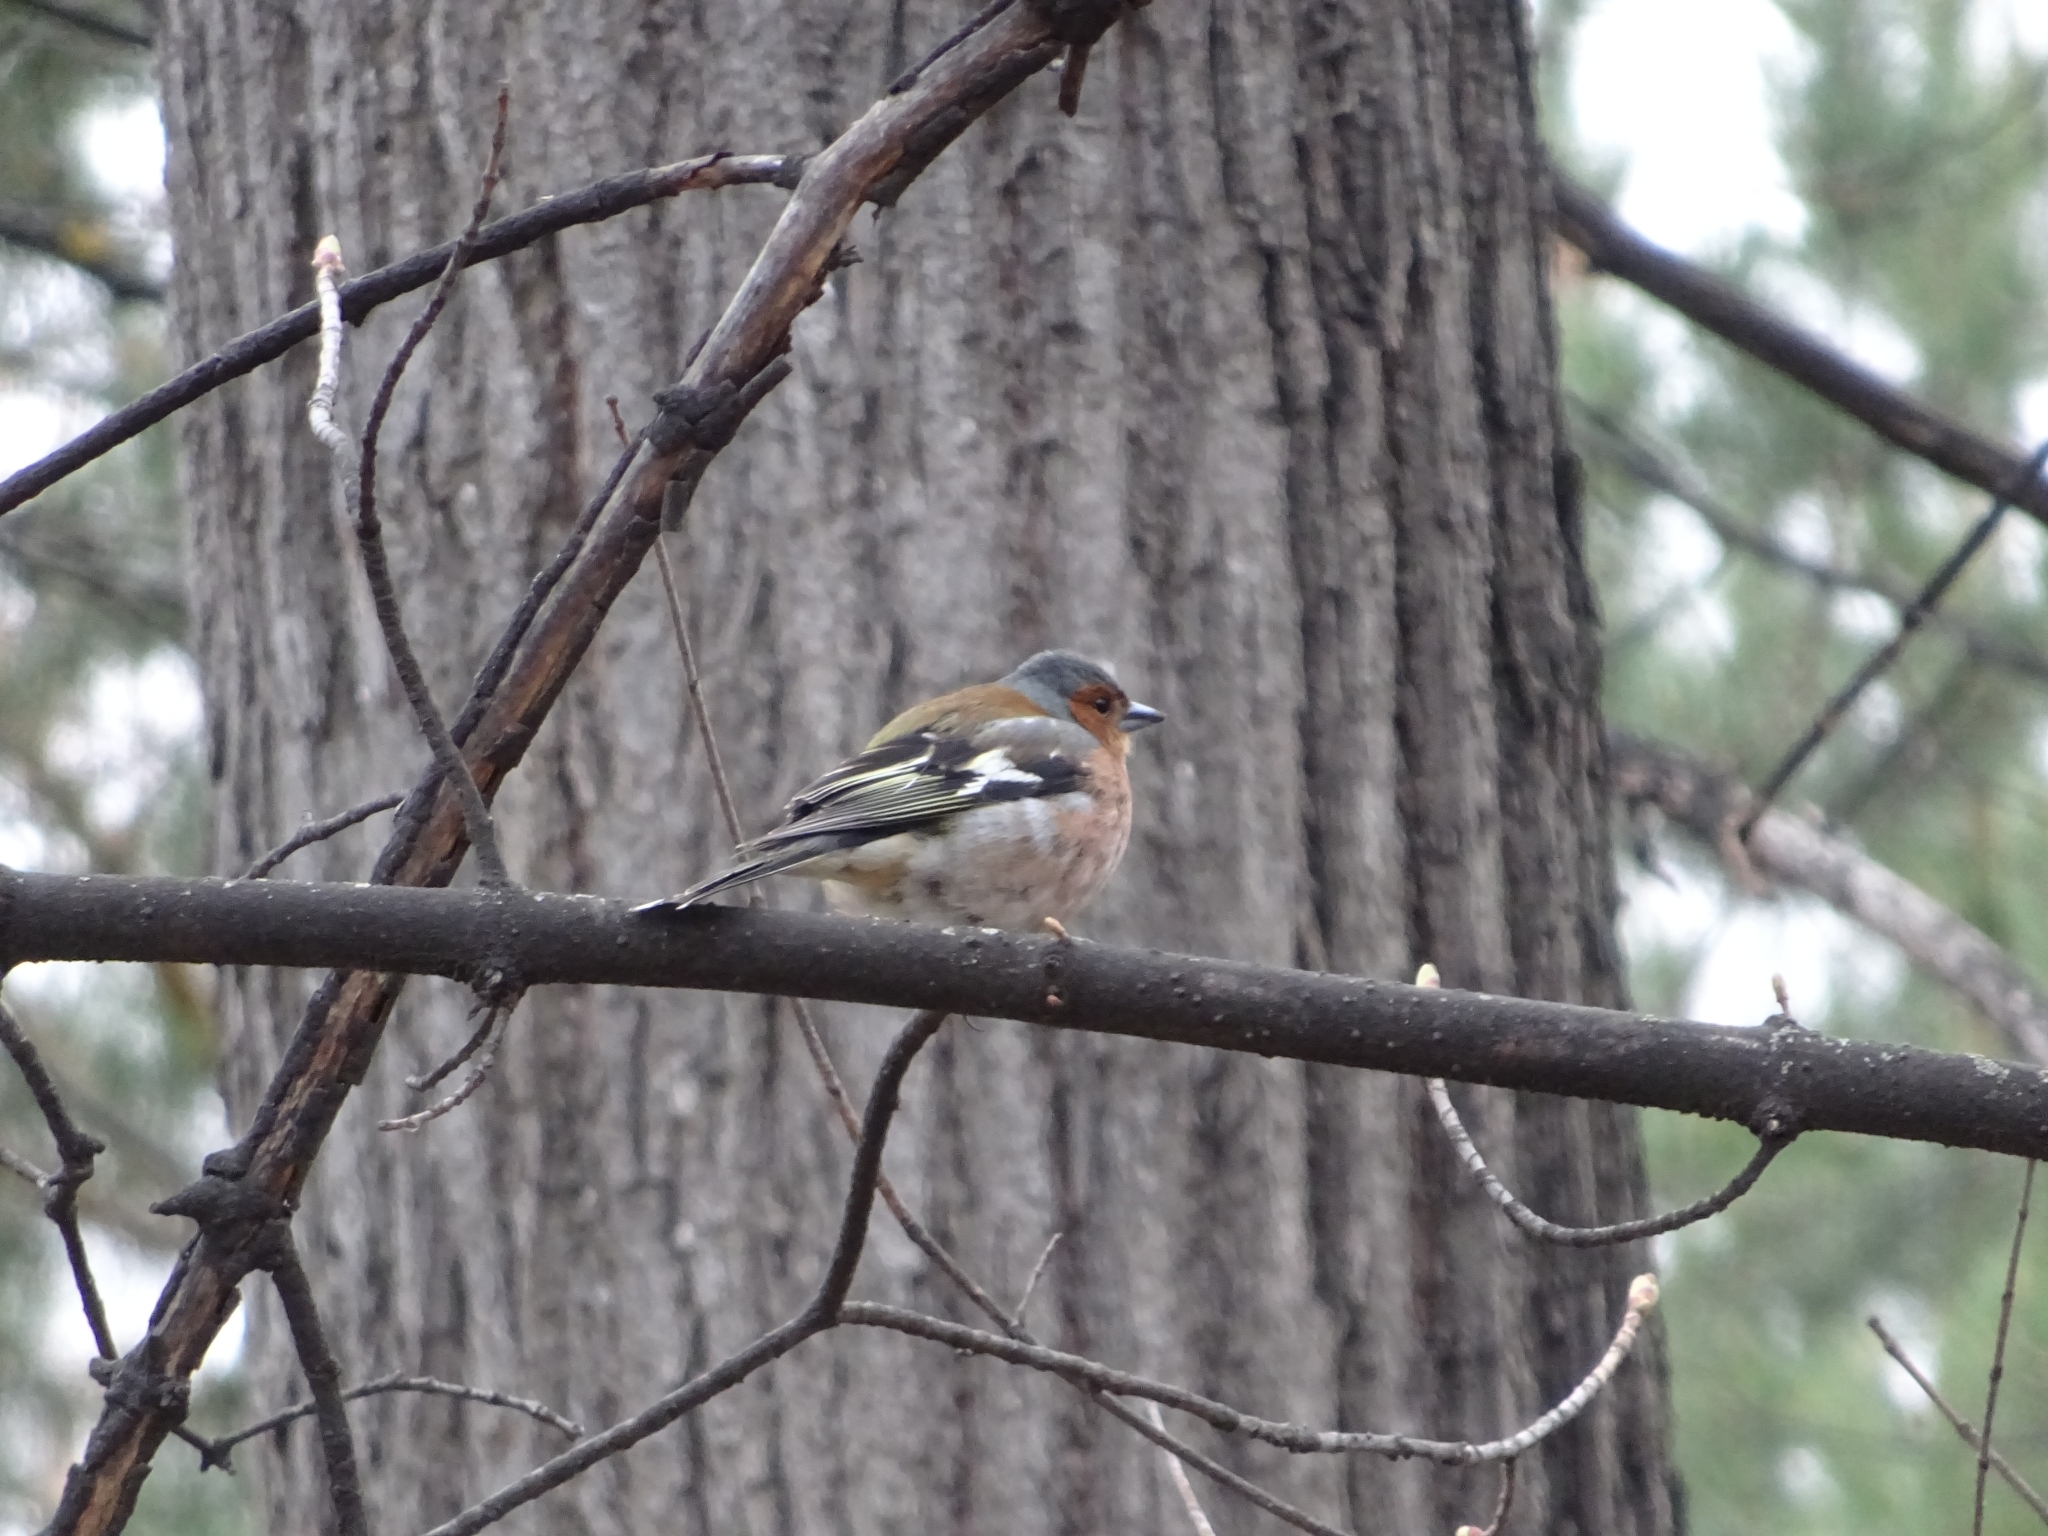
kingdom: Animalia
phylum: Chordata
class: Aves
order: Passeriformes
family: Fringillidae
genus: Fringilla
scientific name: Fringilla coelebs
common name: Common chaffinch
